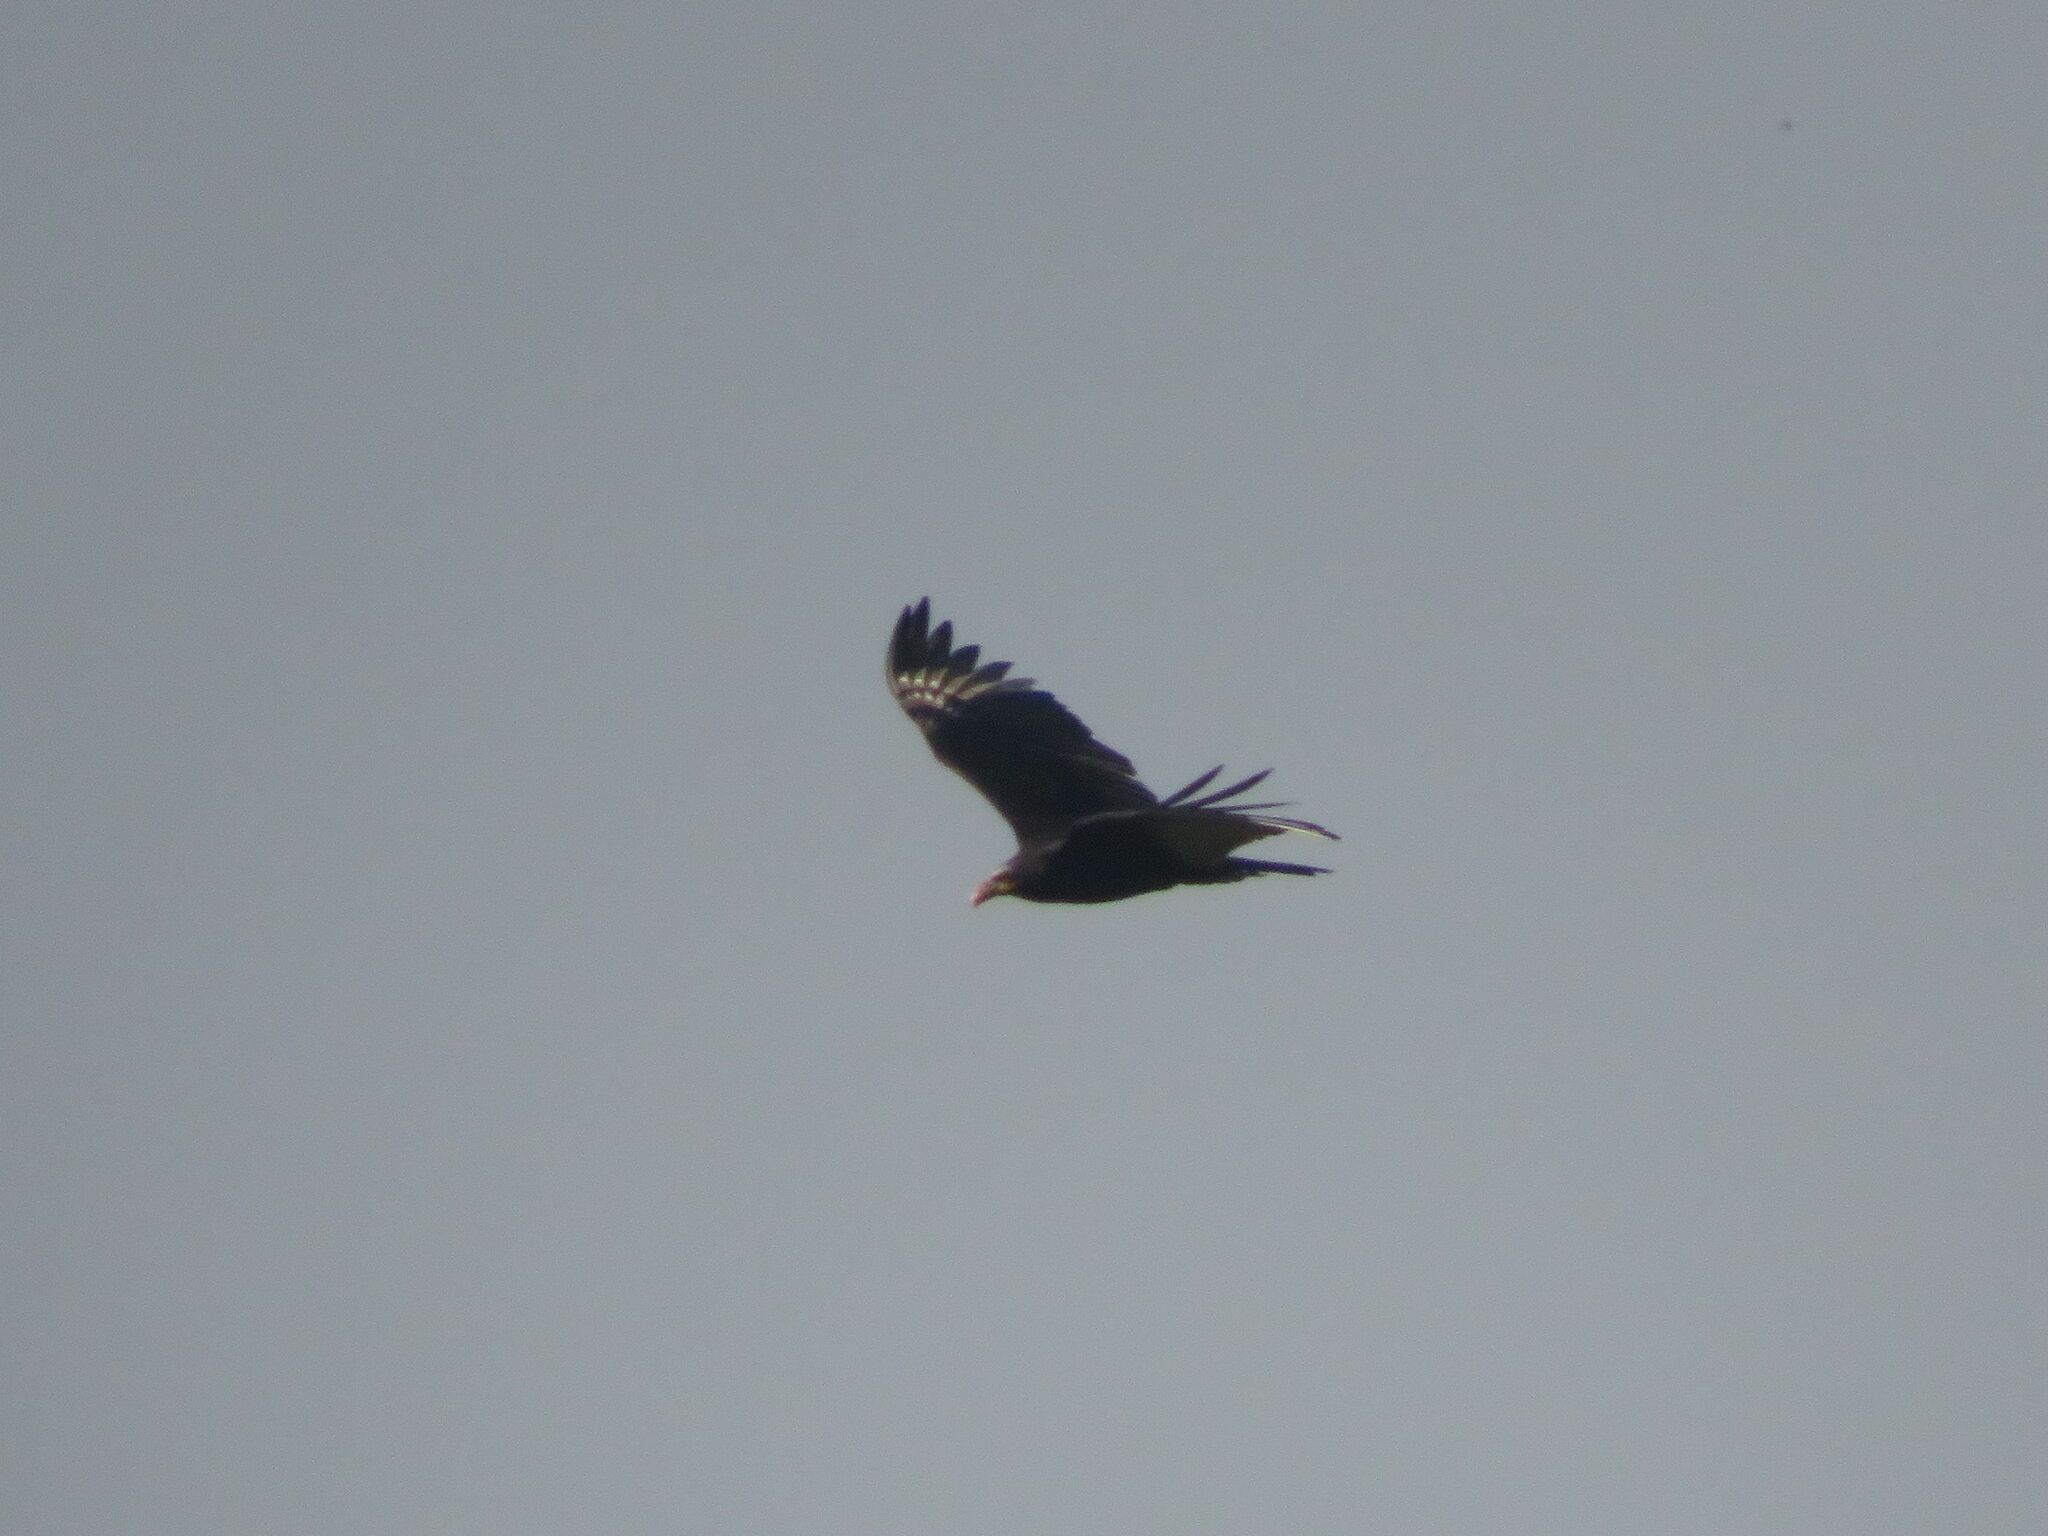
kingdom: Animalia
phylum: Chordata
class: Aves
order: Accipitriformes
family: Cathartidae
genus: Cathartes
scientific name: Cathartes burrovianus
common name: Lesser yellow-headed vulture
